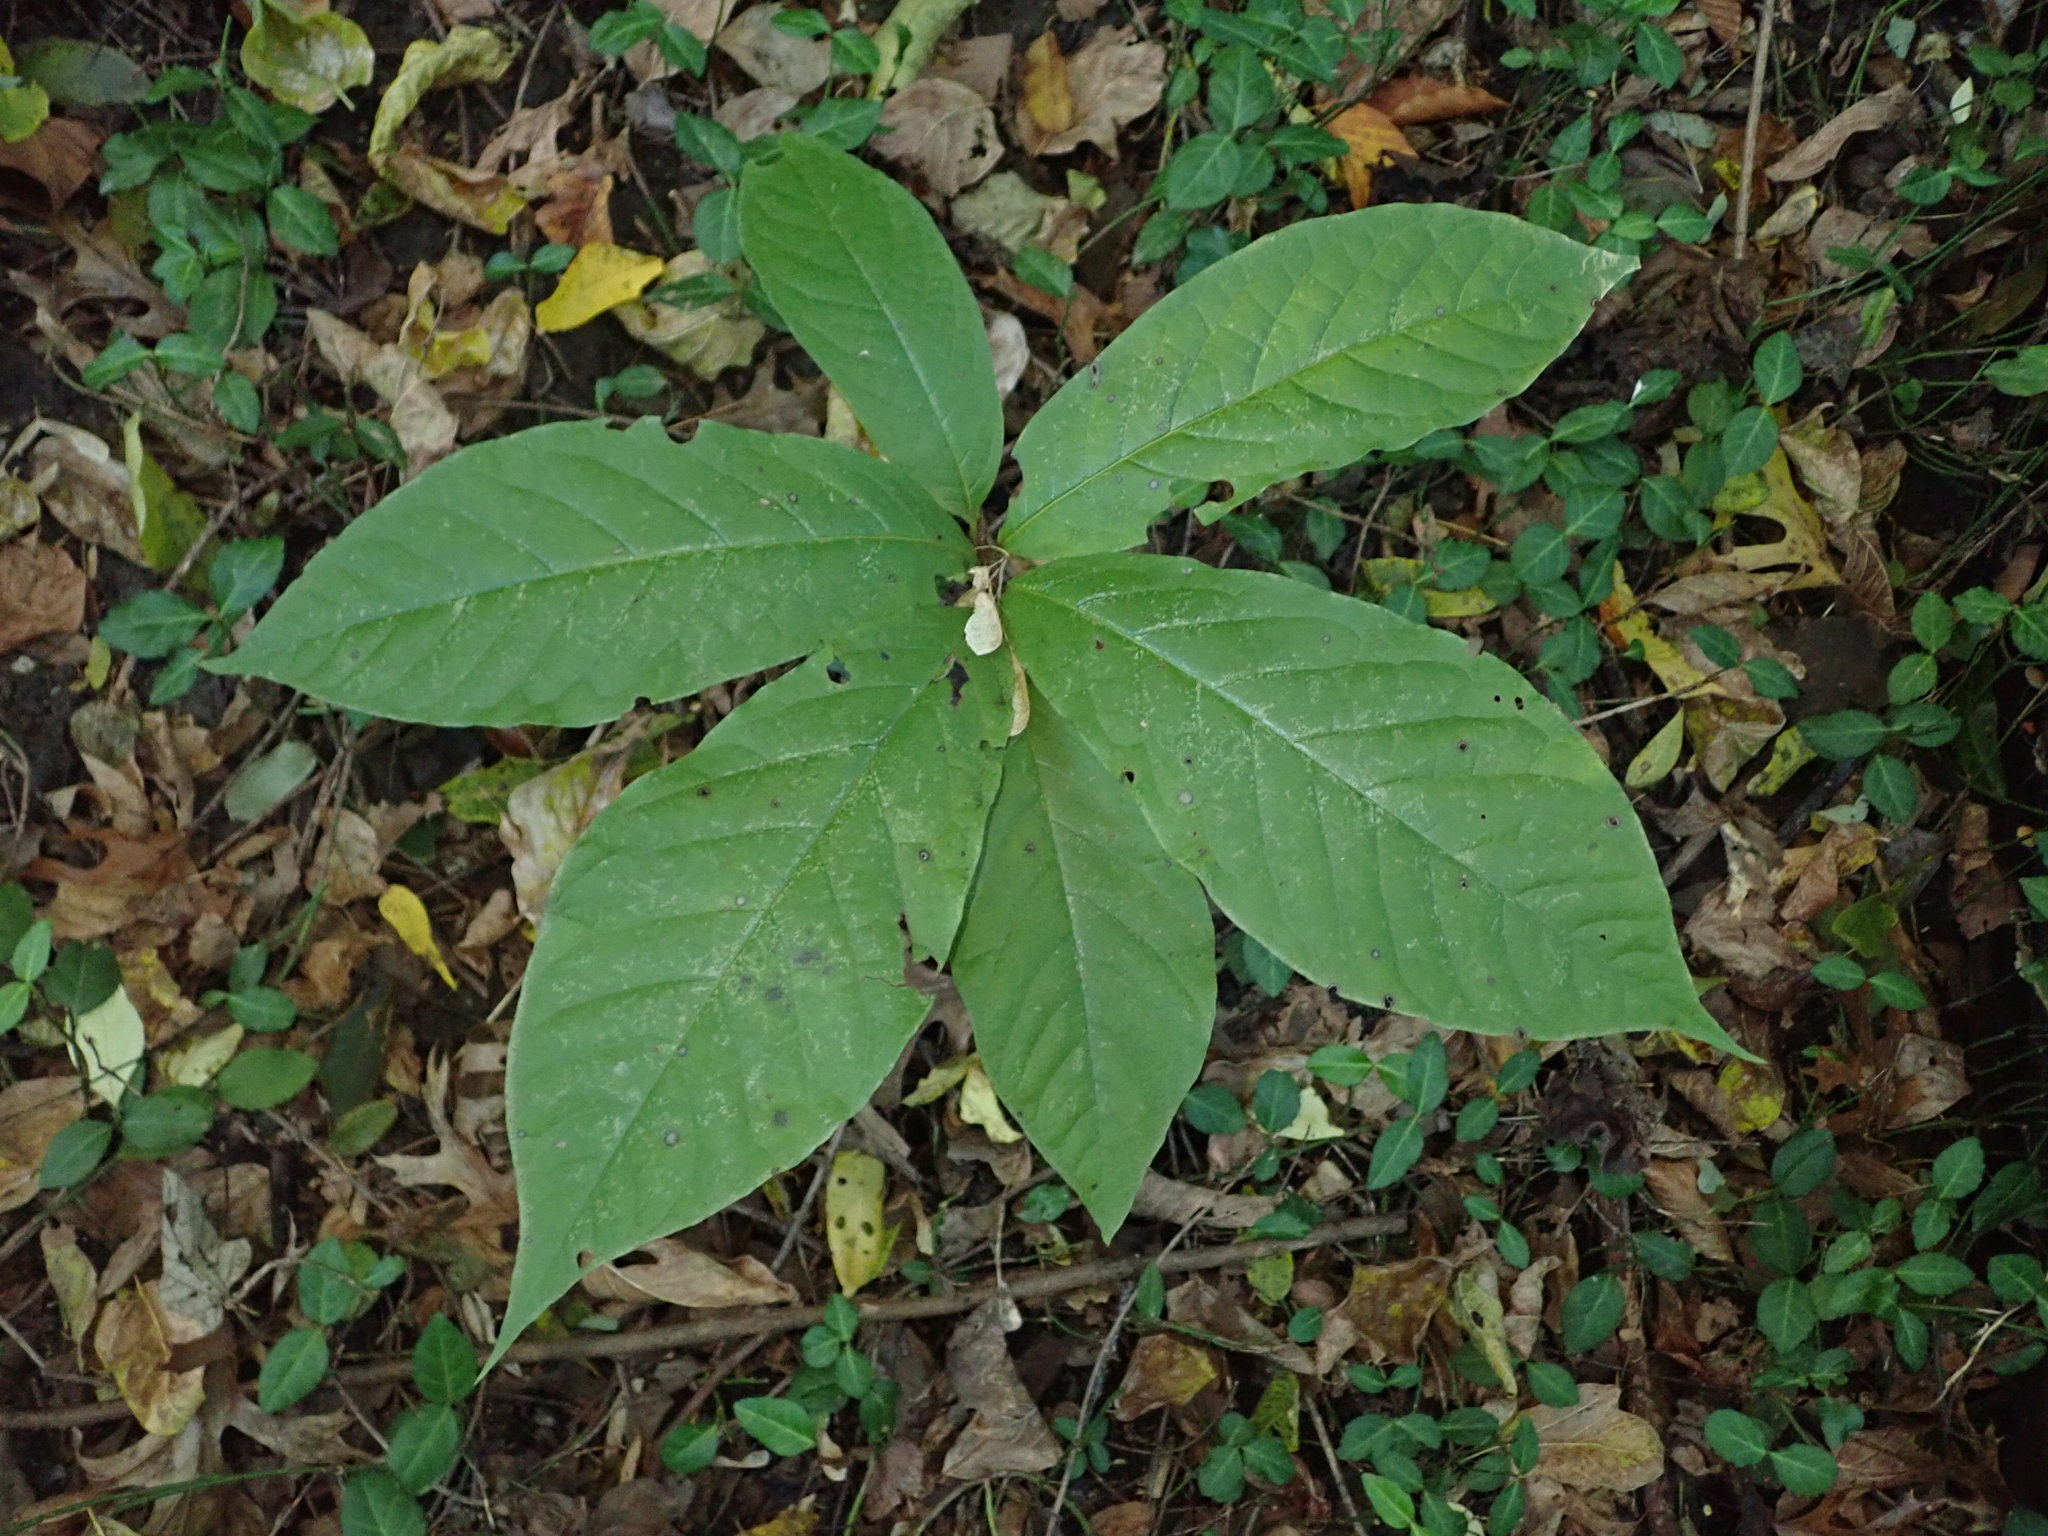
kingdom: Plantae
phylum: Tracheophyta
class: Magnoliopsida
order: Magnoliales
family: Annonaceae
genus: Asimina
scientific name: Asimina triloba
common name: Dog-banana
